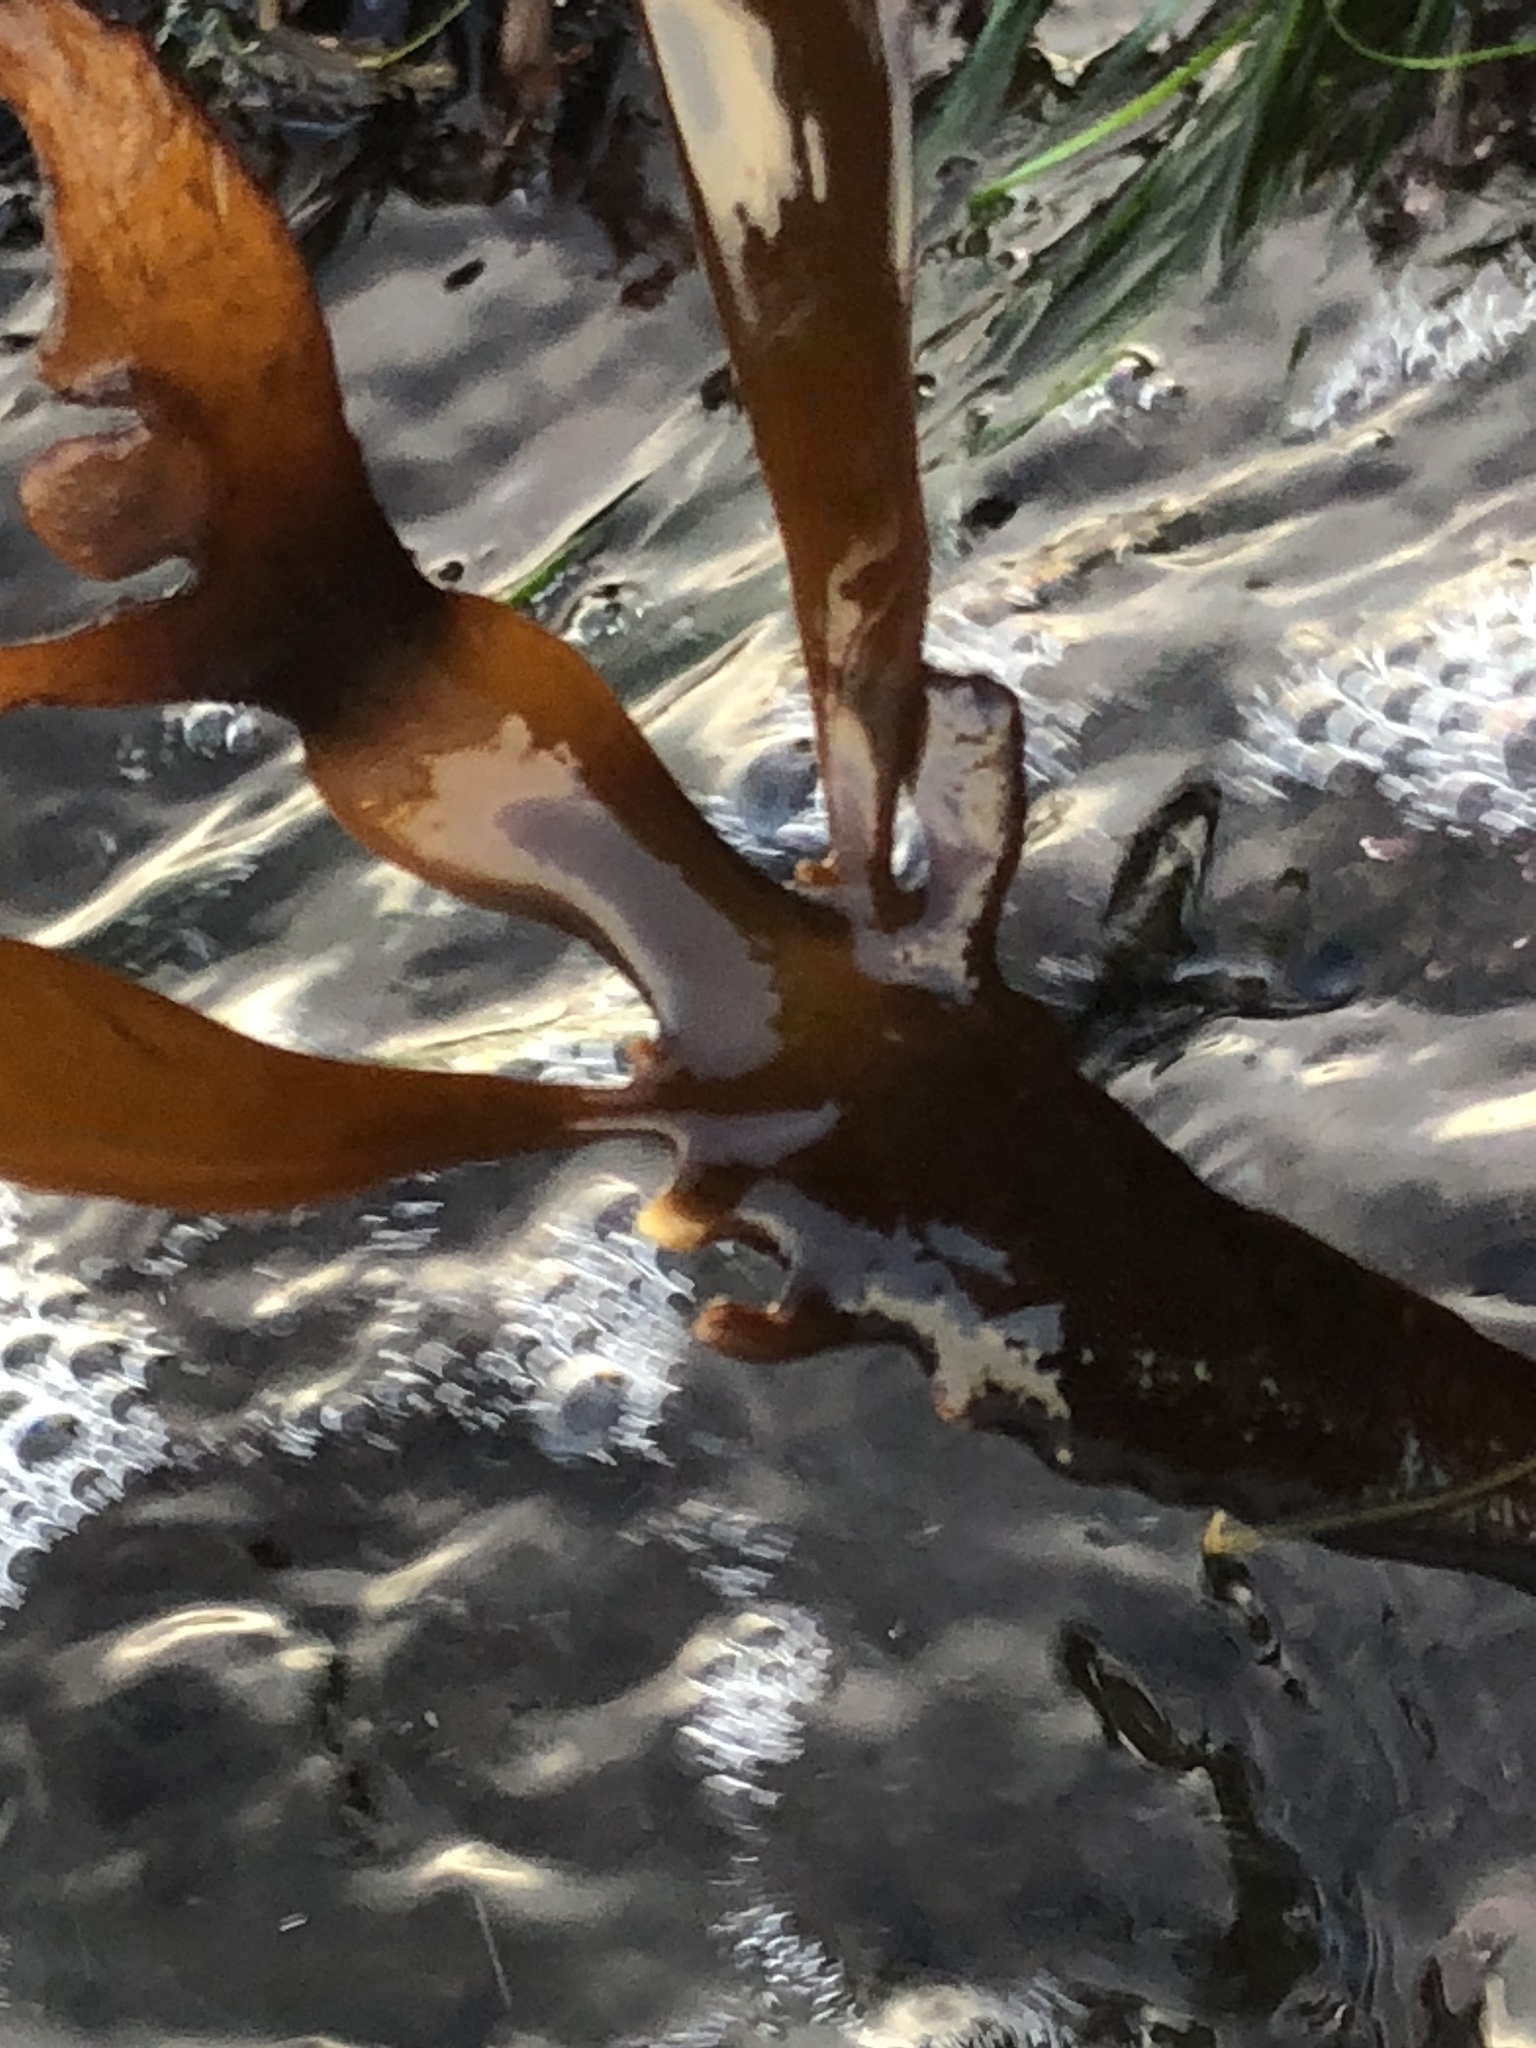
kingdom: Chromista
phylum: Ochrophyta
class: Phaeophyceae
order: Laminariales
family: Alariaceae
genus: Pterygophora
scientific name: Pterygophora californica
